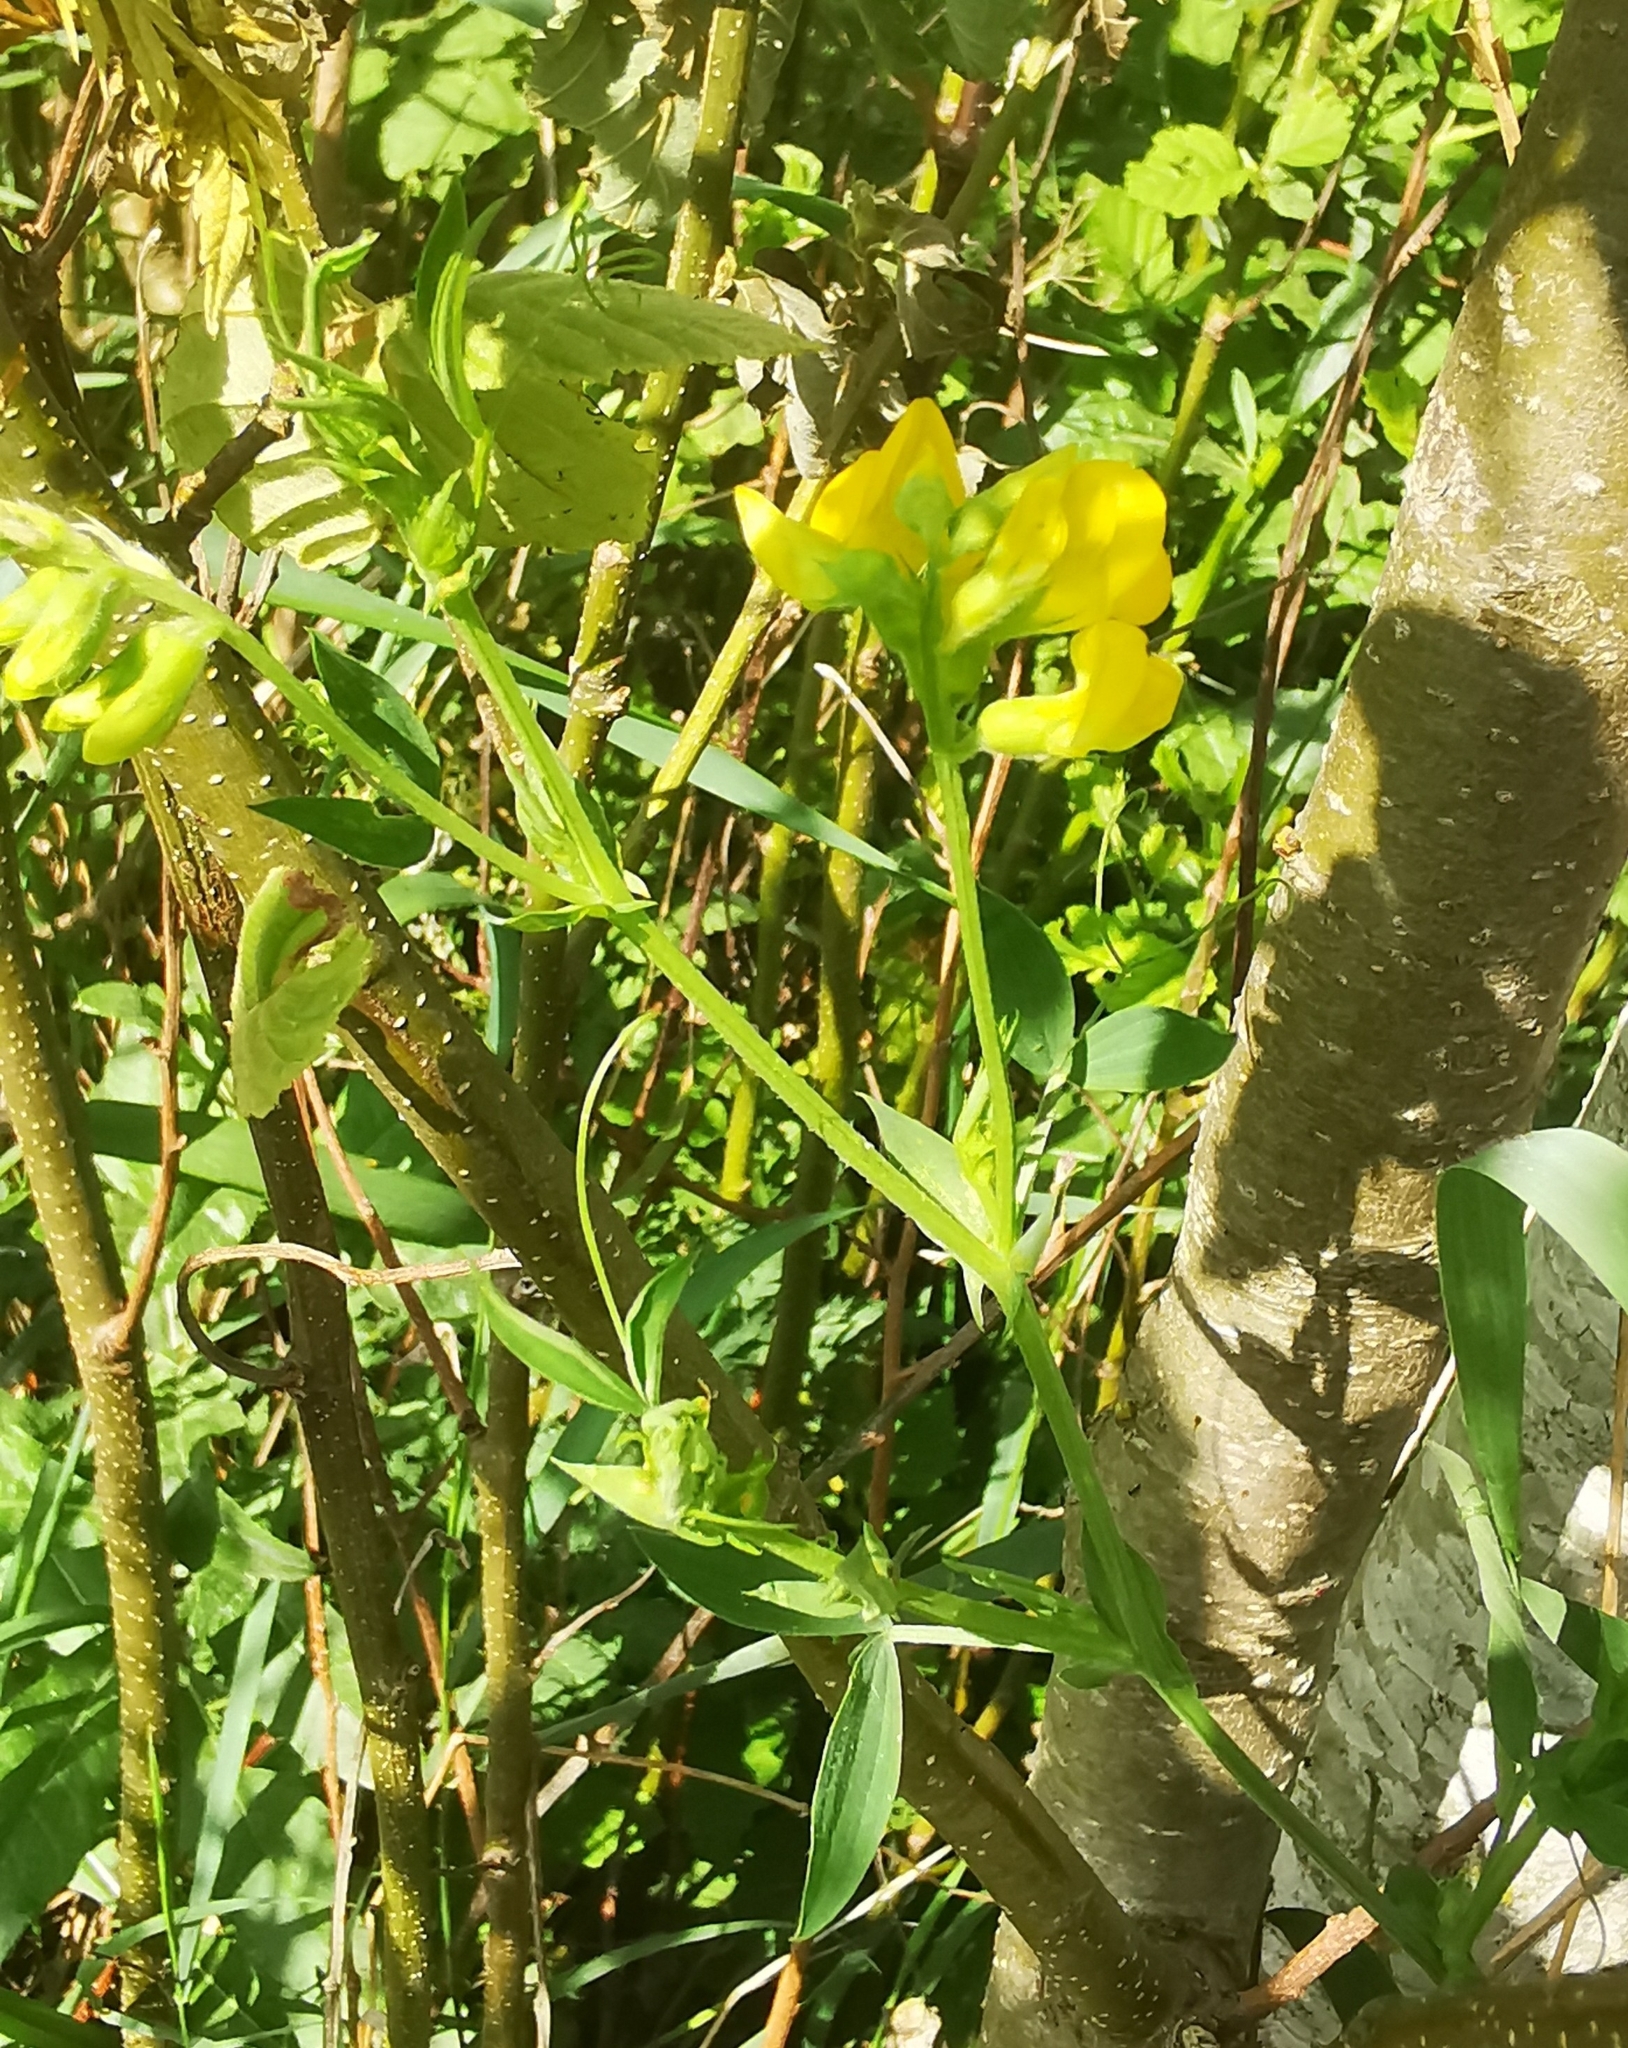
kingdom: Plantae
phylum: Tracheophyta
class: Magnoliopsida
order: Fabales
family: Fabaceae
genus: Lathyrus
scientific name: Lathyrus pratensis
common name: Meadow vetchling
